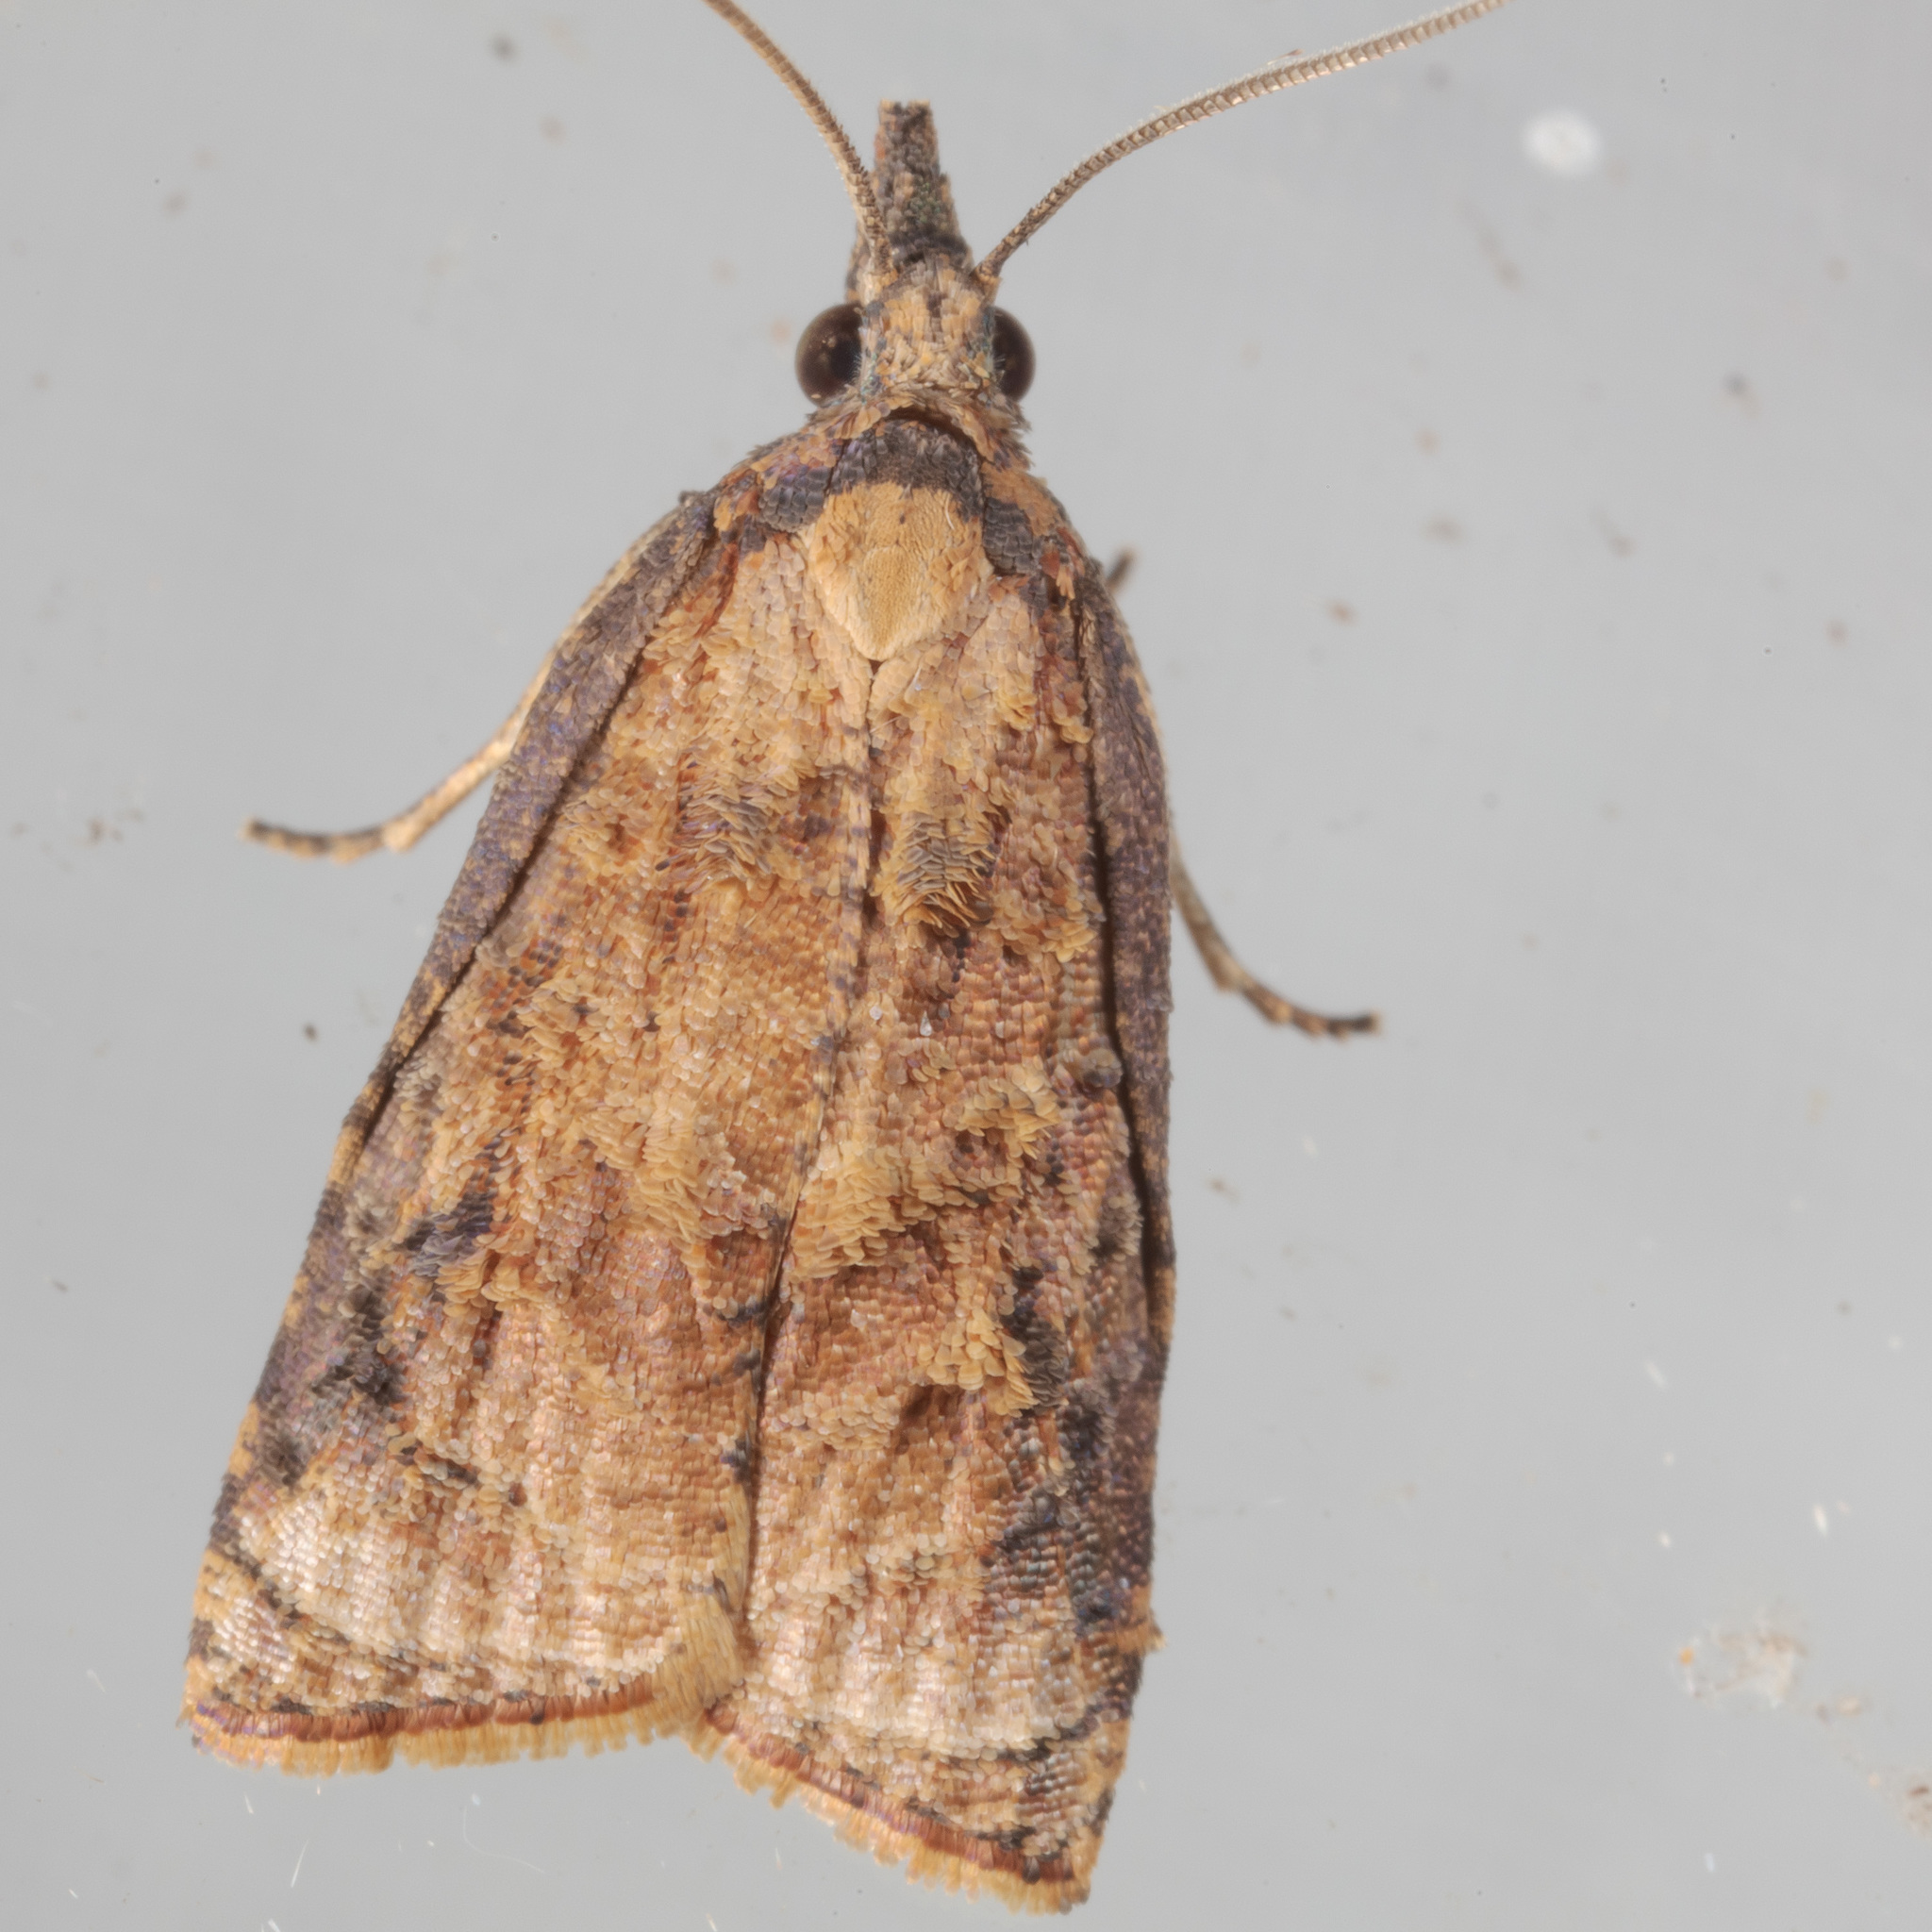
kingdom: Animalia
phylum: Arthropoda
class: Insecta
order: Lepidoptera
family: Tortricidae
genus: Platynota
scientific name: Platynota rostrana
